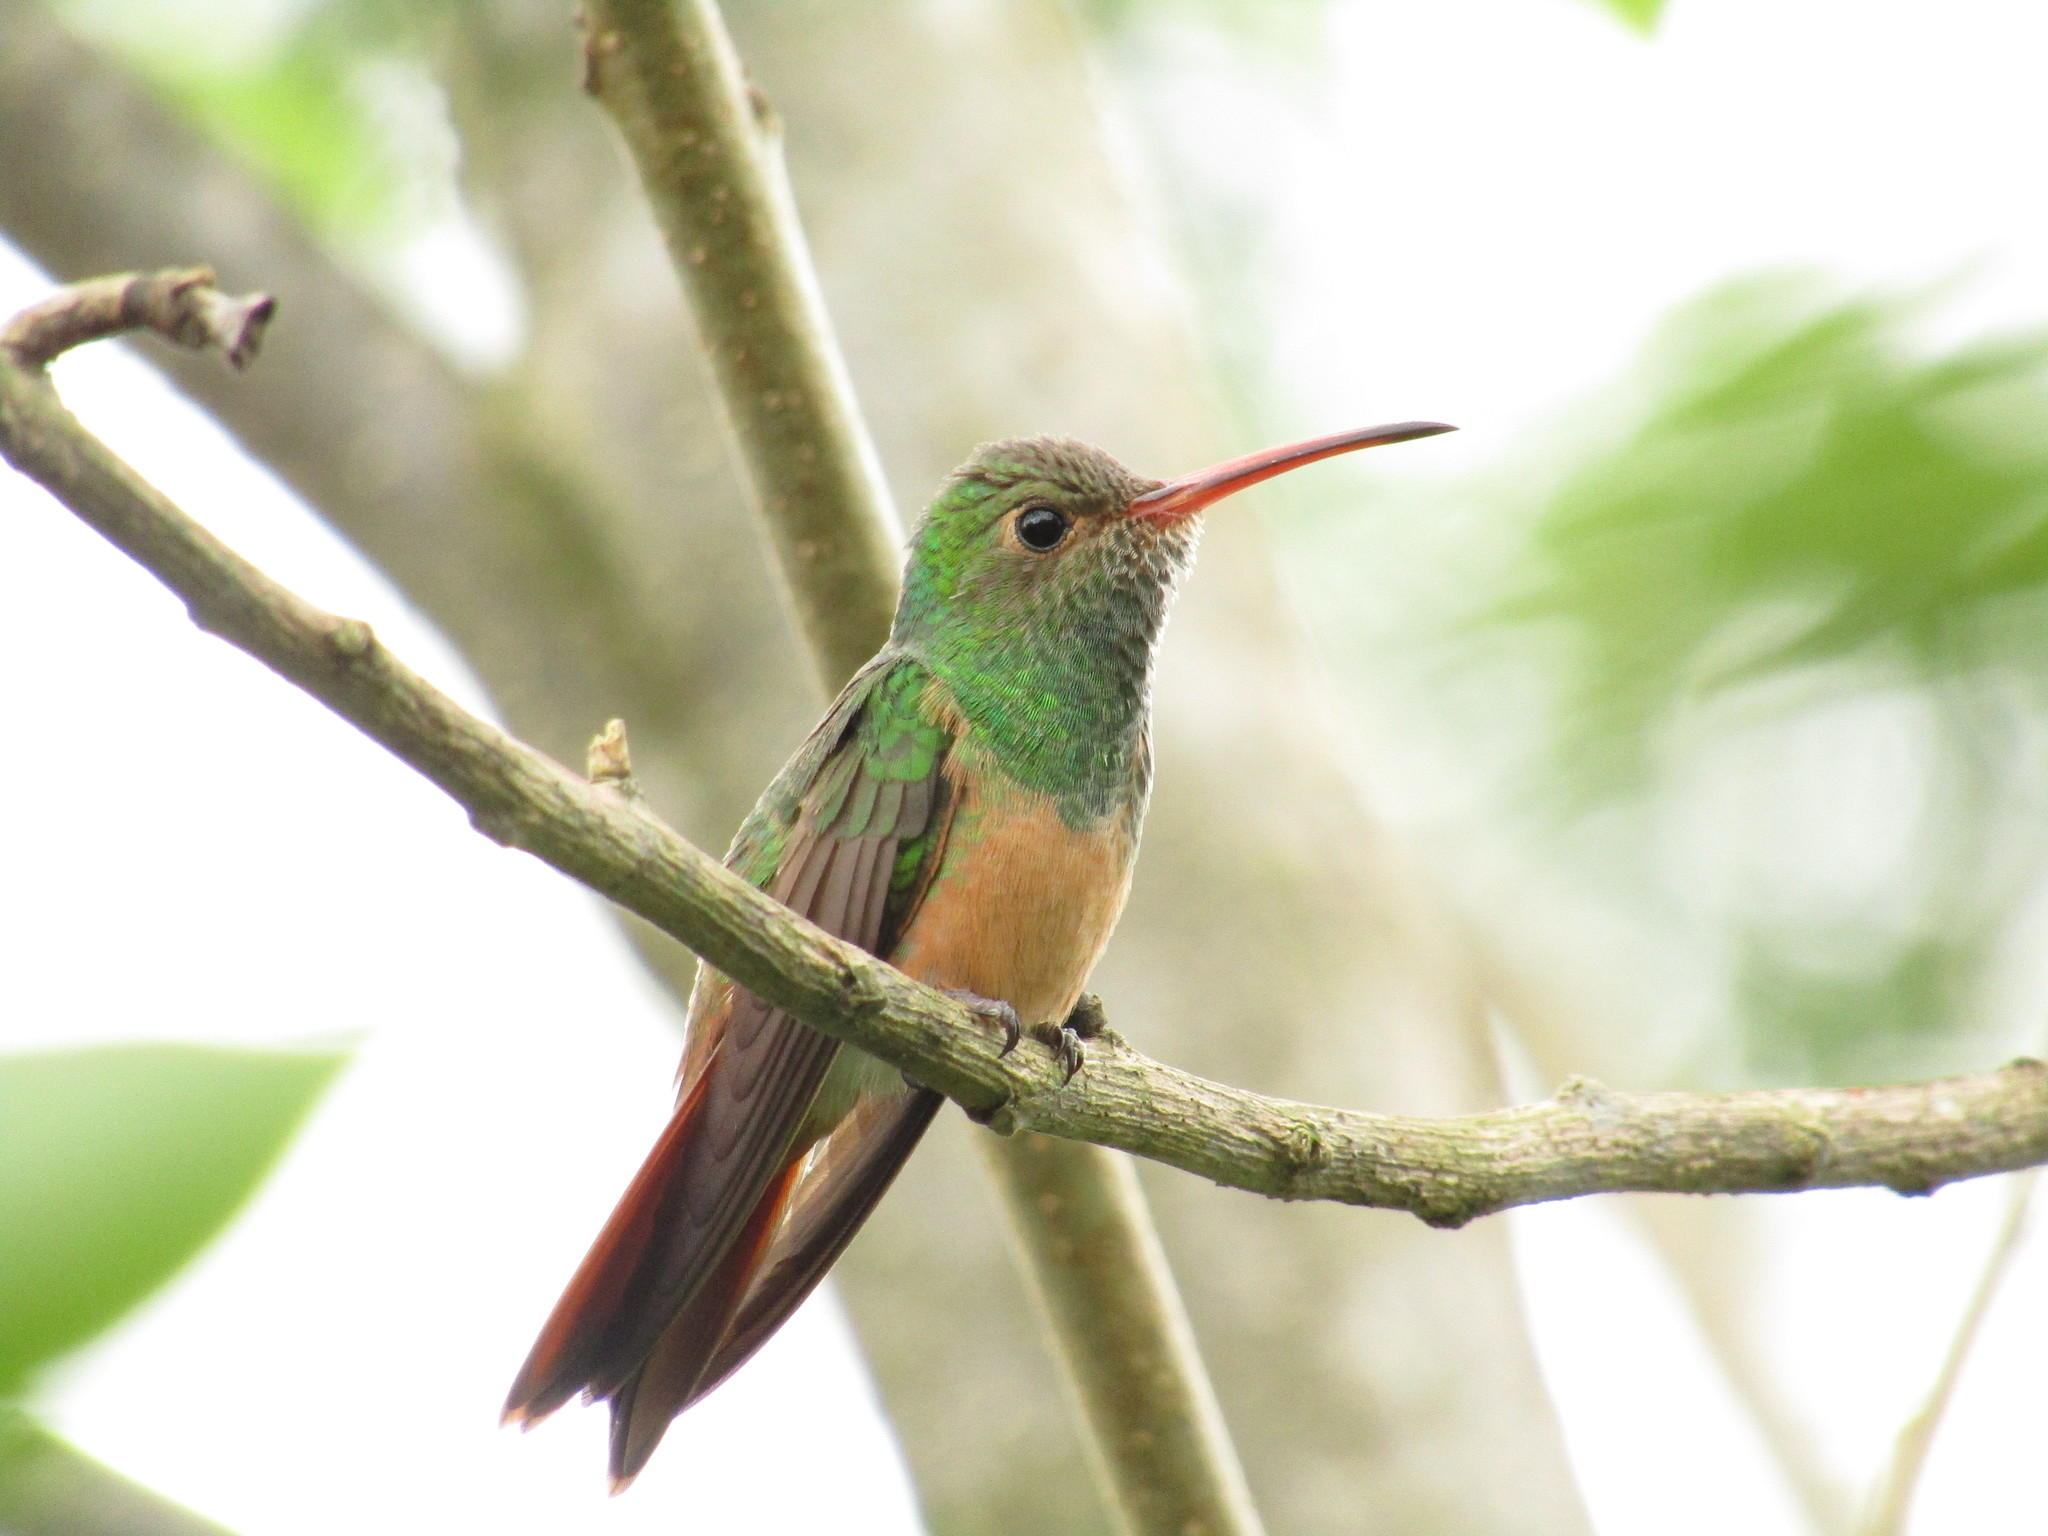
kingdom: Animalia
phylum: Chordata
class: Aves
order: Apodiformes
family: Trochilidae
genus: Amazilia
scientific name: Amazilia yucatanensis
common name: Buff-bellied hummingbird
